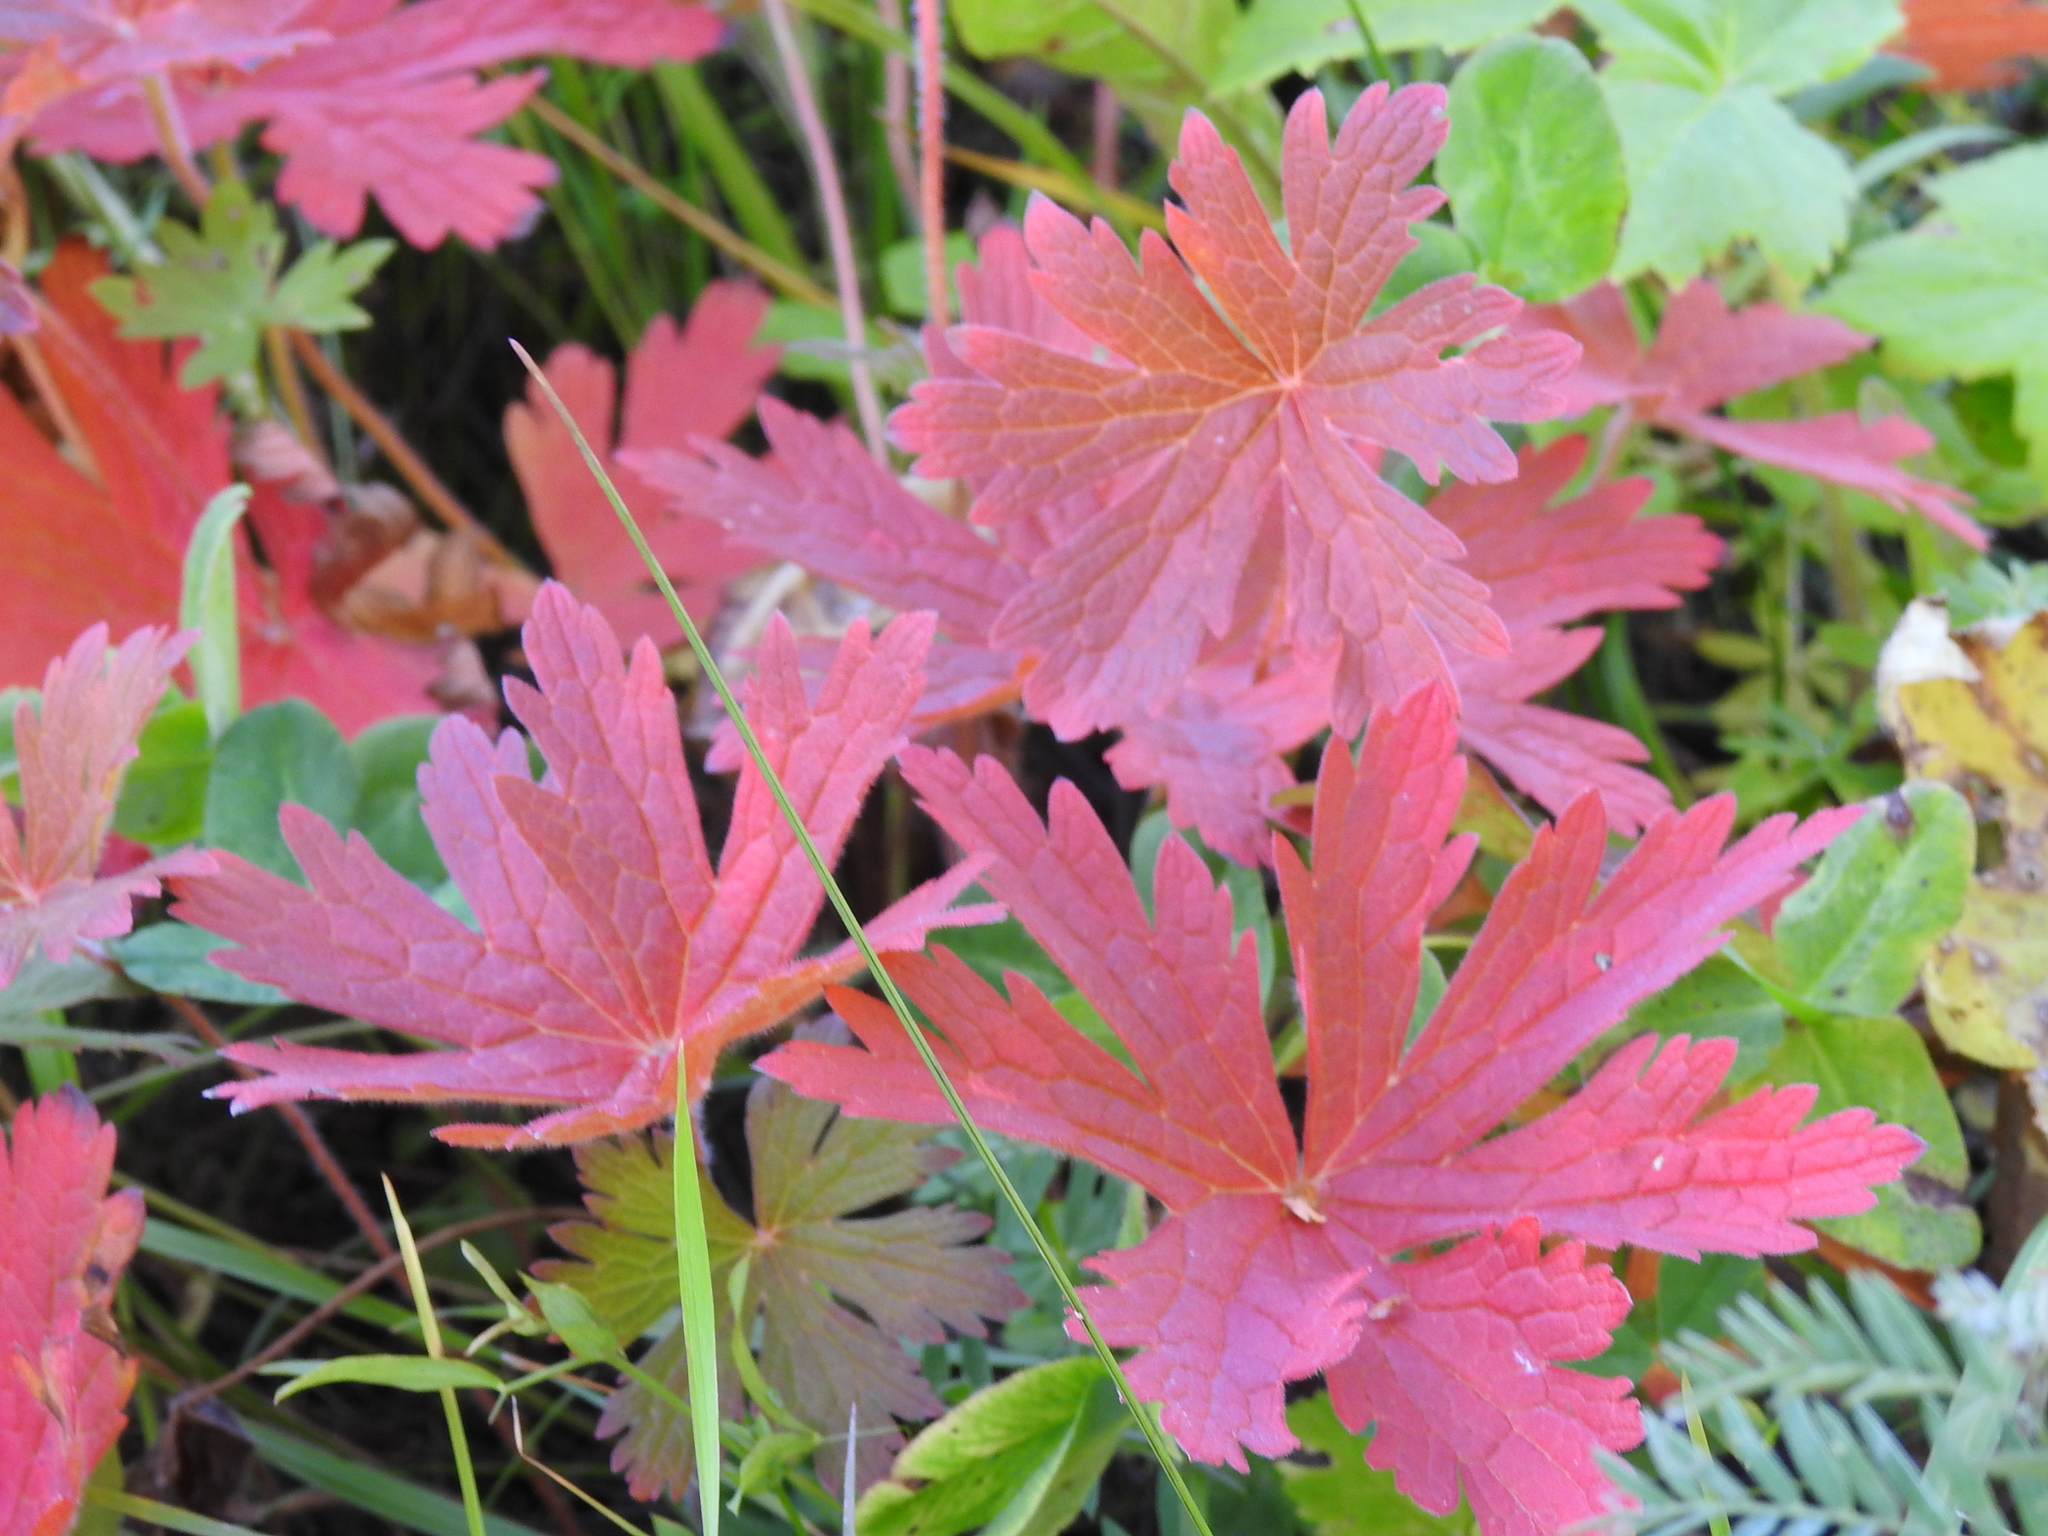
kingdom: Plantae
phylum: Tracheophyta
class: Magnoliopsida
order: Geraniales
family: Geraniaceae
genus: Geranium
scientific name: Geranium pratense
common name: Meadow crane's-bill
